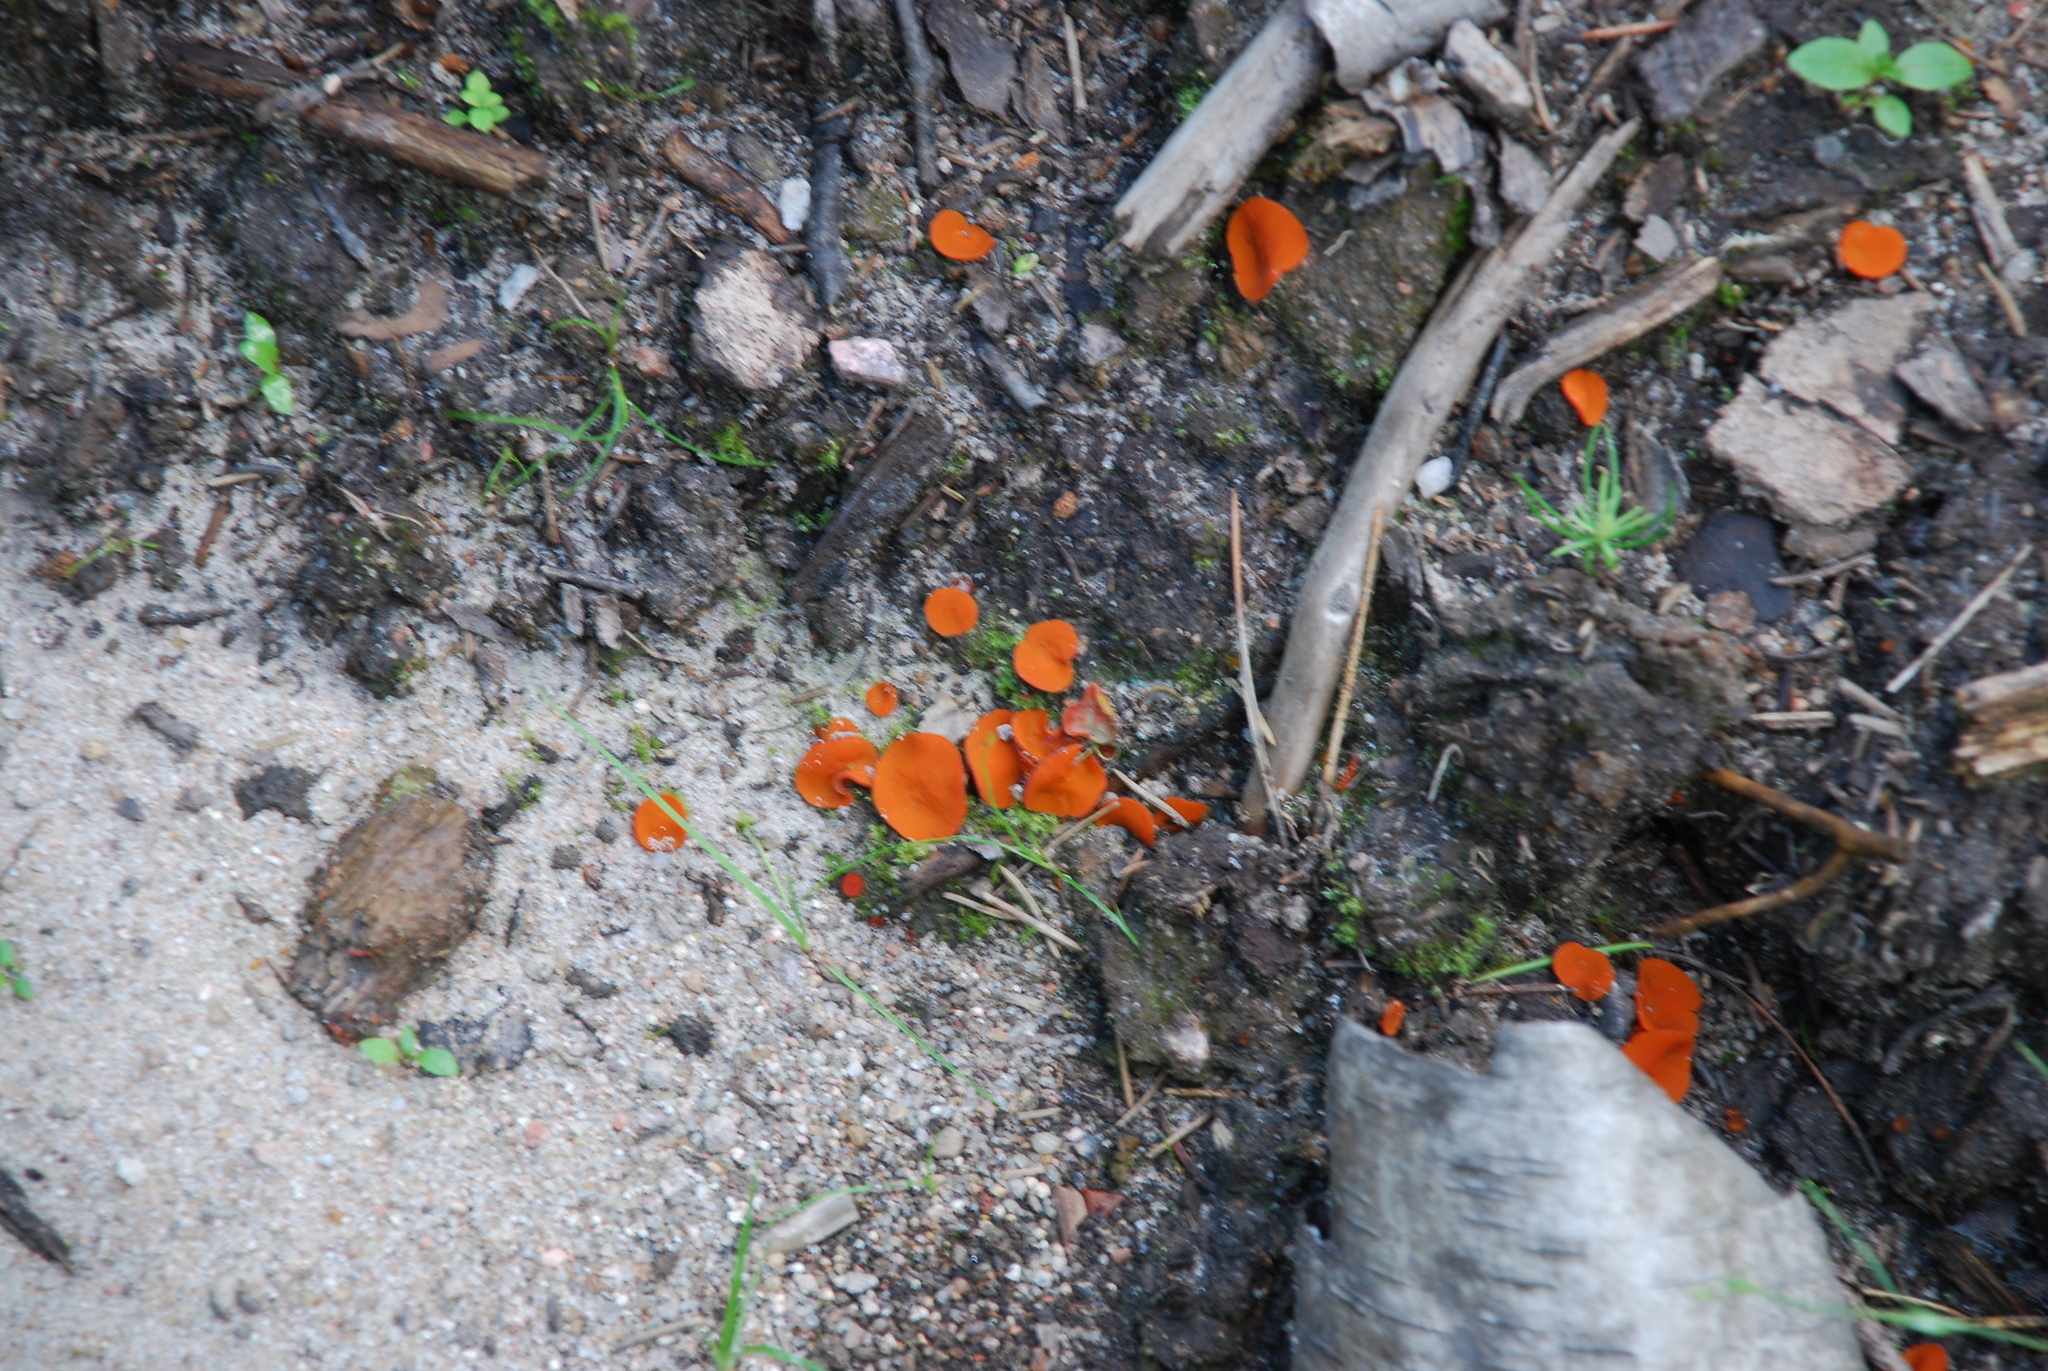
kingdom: Fungi
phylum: Ascomycota
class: Pezizomycetes
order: Pezizales
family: Pyronemataceae
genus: Aleuria
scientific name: Aleuria aurantia
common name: Orange peel fungus
